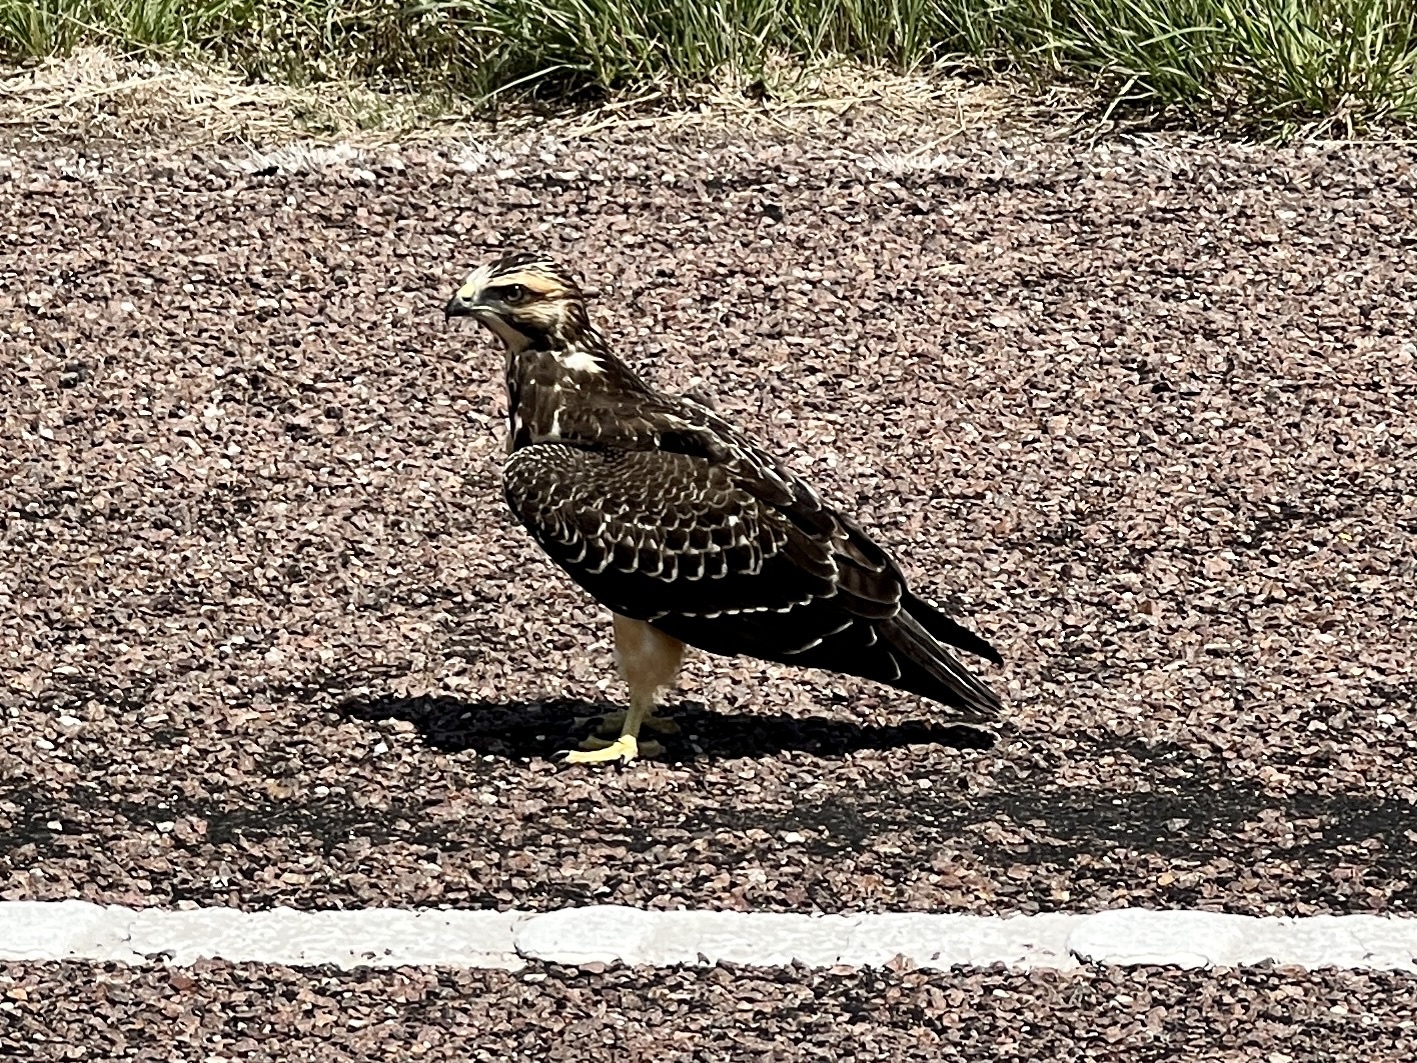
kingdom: Animalia
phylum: Chordata
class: Aves
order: Accipitriformes
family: Accipitridae
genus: Buteo
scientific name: Buteo swainsoni
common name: Swainson's hawk
